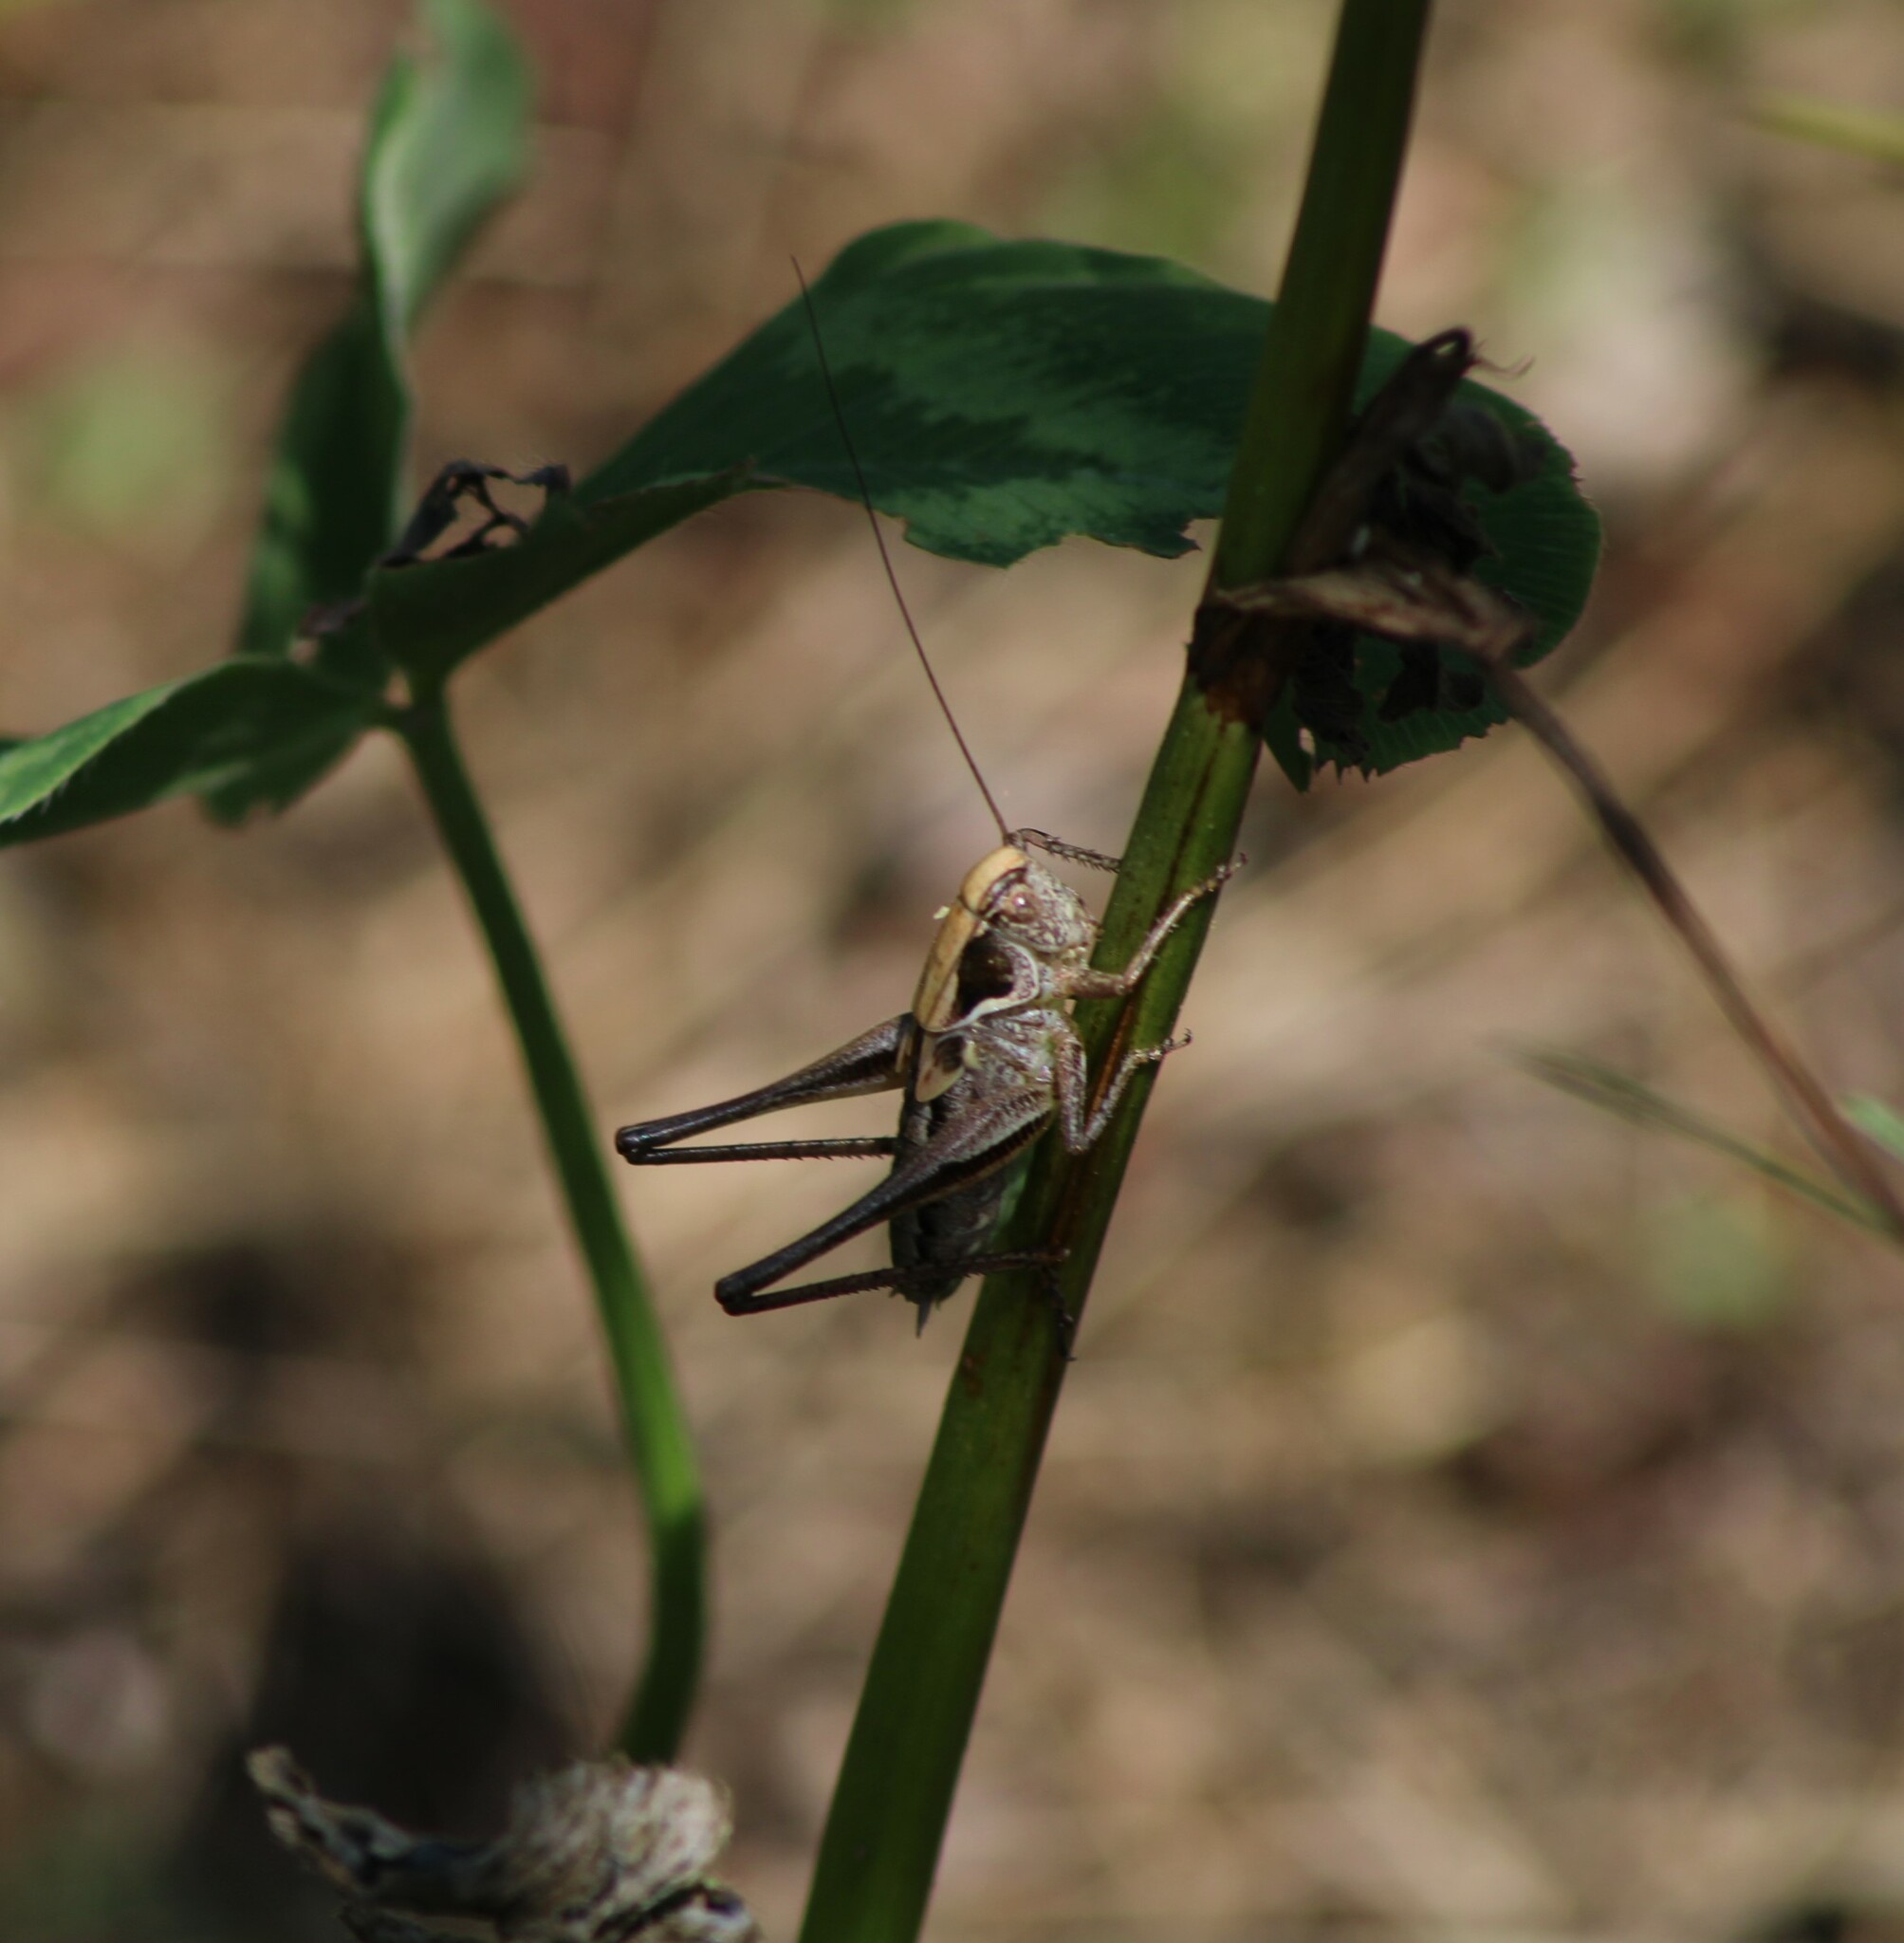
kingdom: Animalia
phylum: Arthropoda
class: Insecta
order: Orthoptera
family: Tettigoniidae
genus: Platycleis
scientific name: Platycleis grisea
